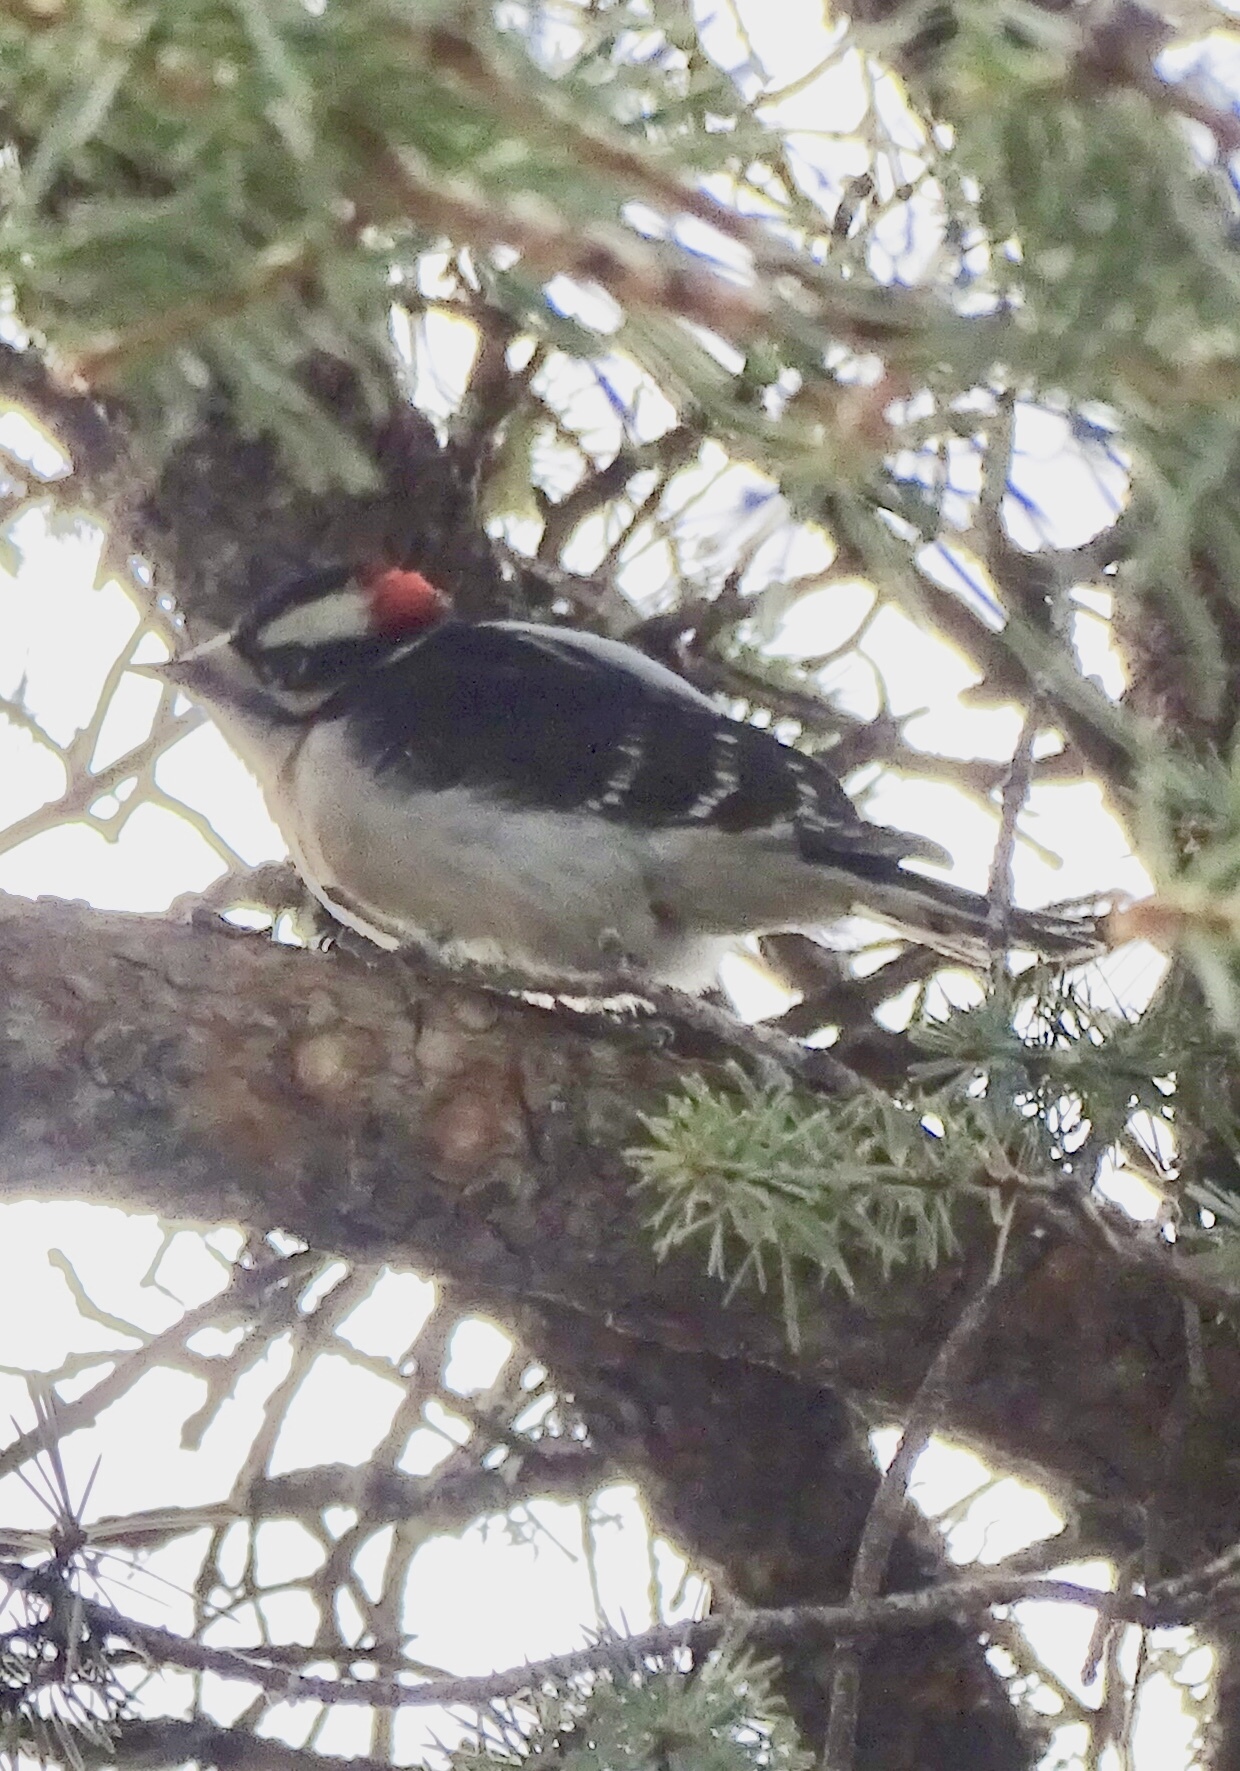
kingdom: Animalia
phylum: Chordata
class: Aves
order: Piciformes
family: Picidae
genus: Dryobates
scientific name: Dryobates pubescens
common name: Downy woodpecker
